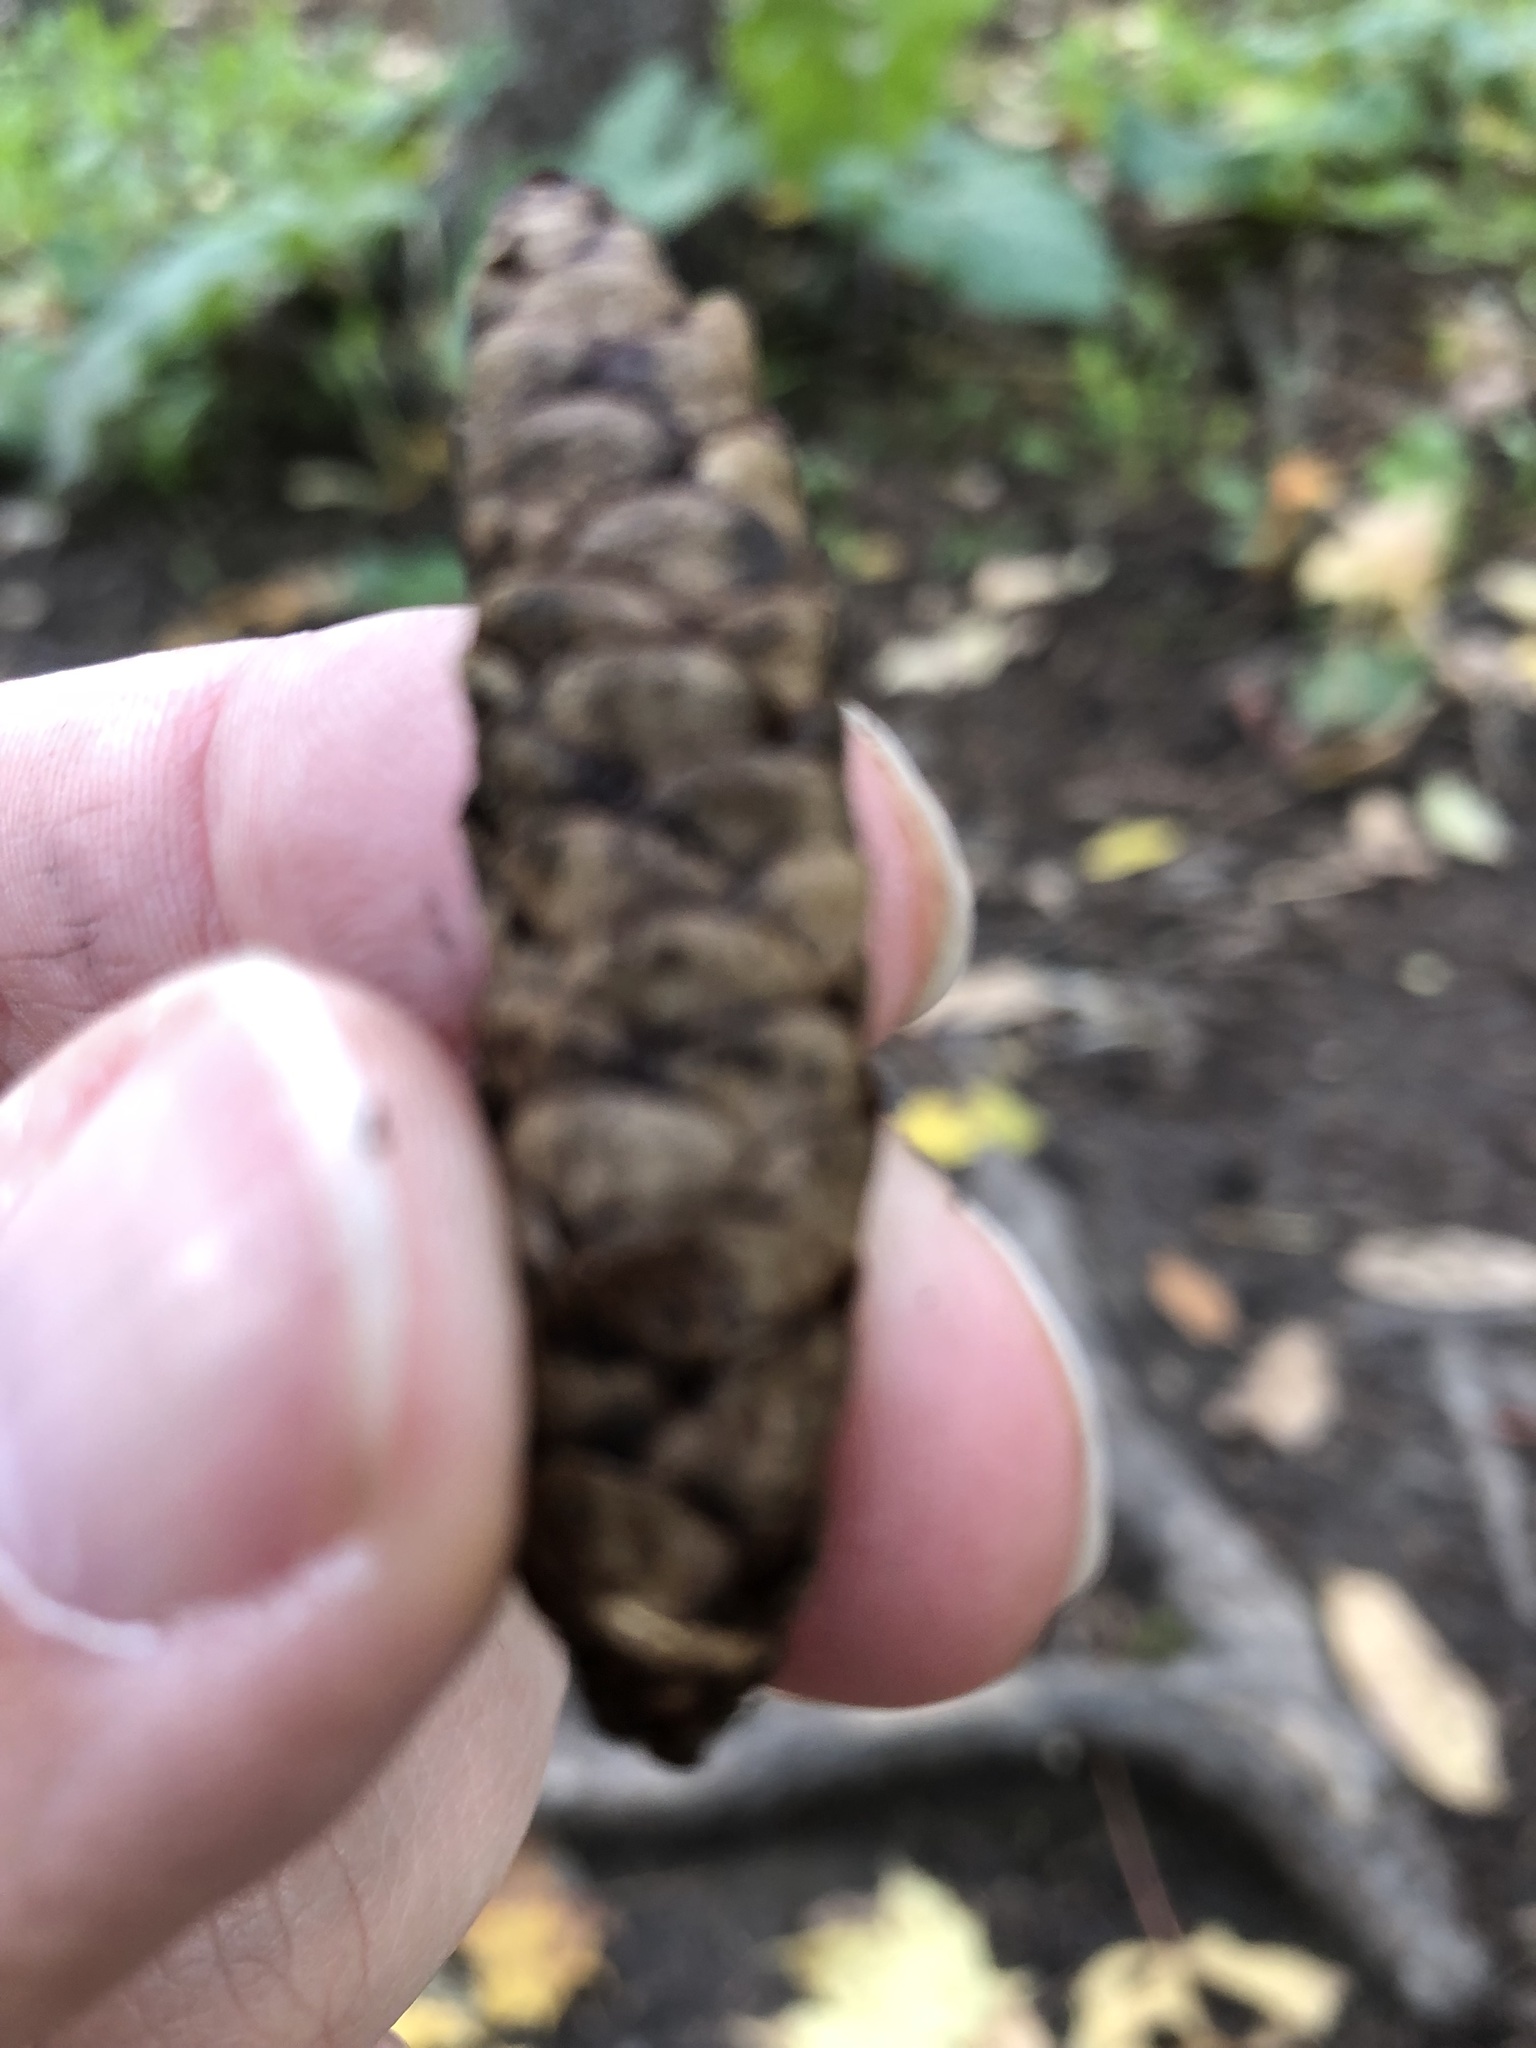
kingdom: Plantae
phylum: Tracheophyta
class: Pinopsida
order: Pinales
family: Pinaceae
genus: Picea
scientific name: Picea glauca
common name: White spruce
